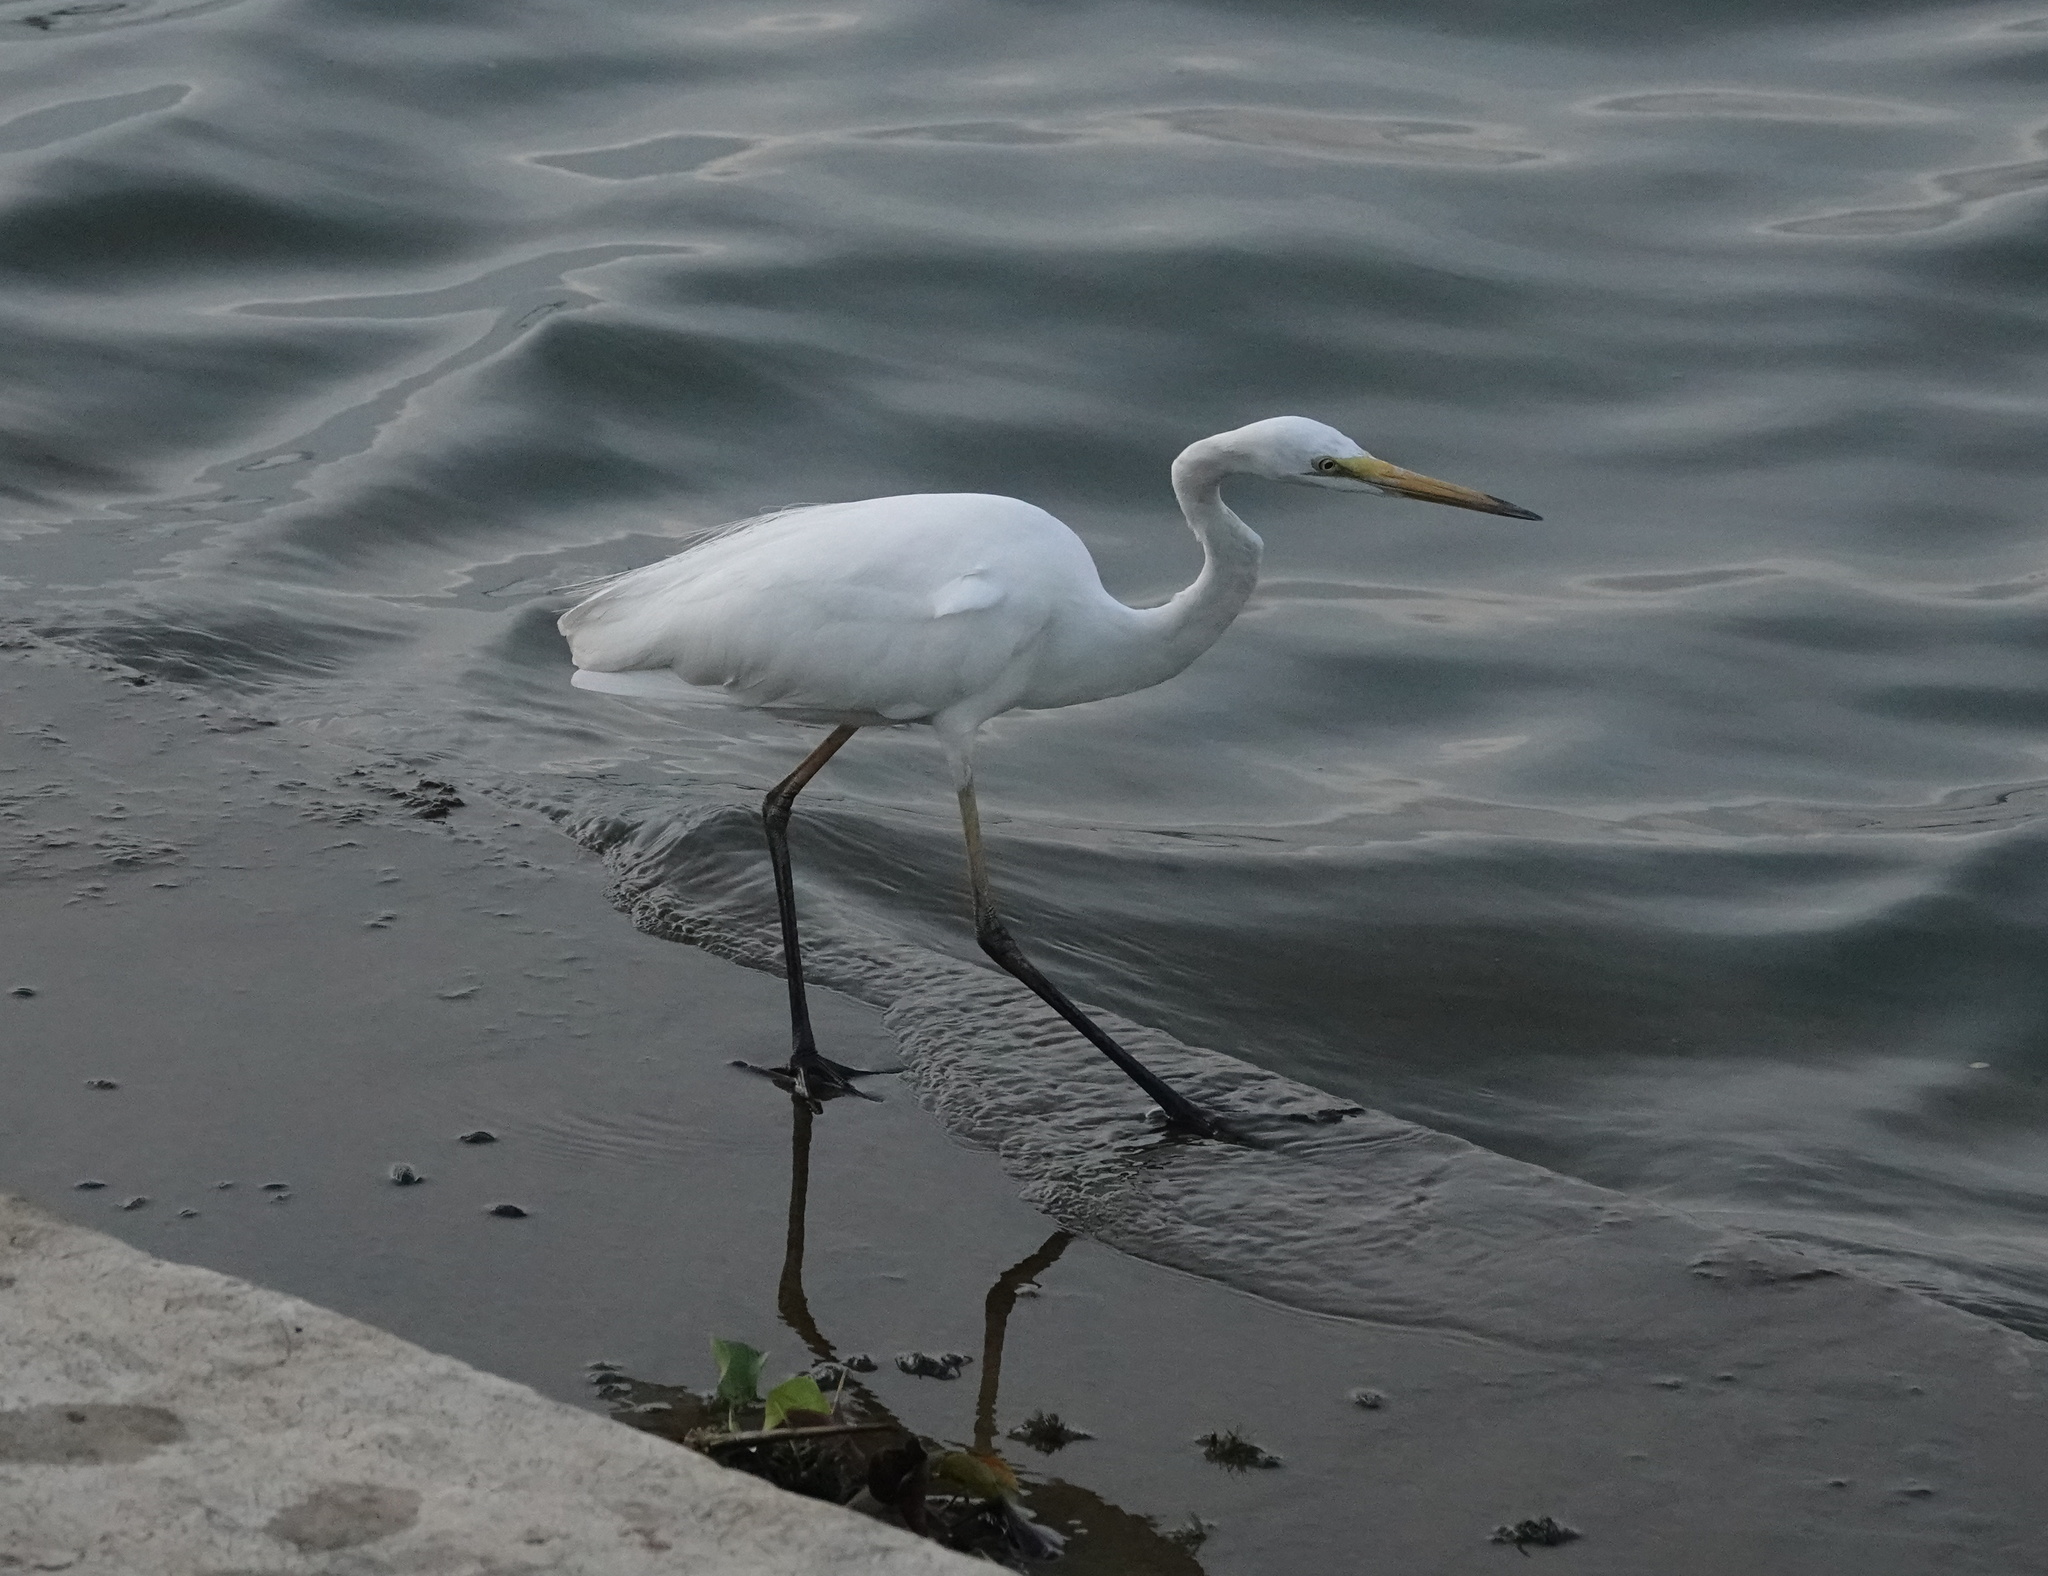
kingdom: Animalia
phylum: Chordata
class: Aves
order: Pelecaniformes
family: Ardeidae
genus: Ardea
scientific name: Ardea alba
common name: Great egret
